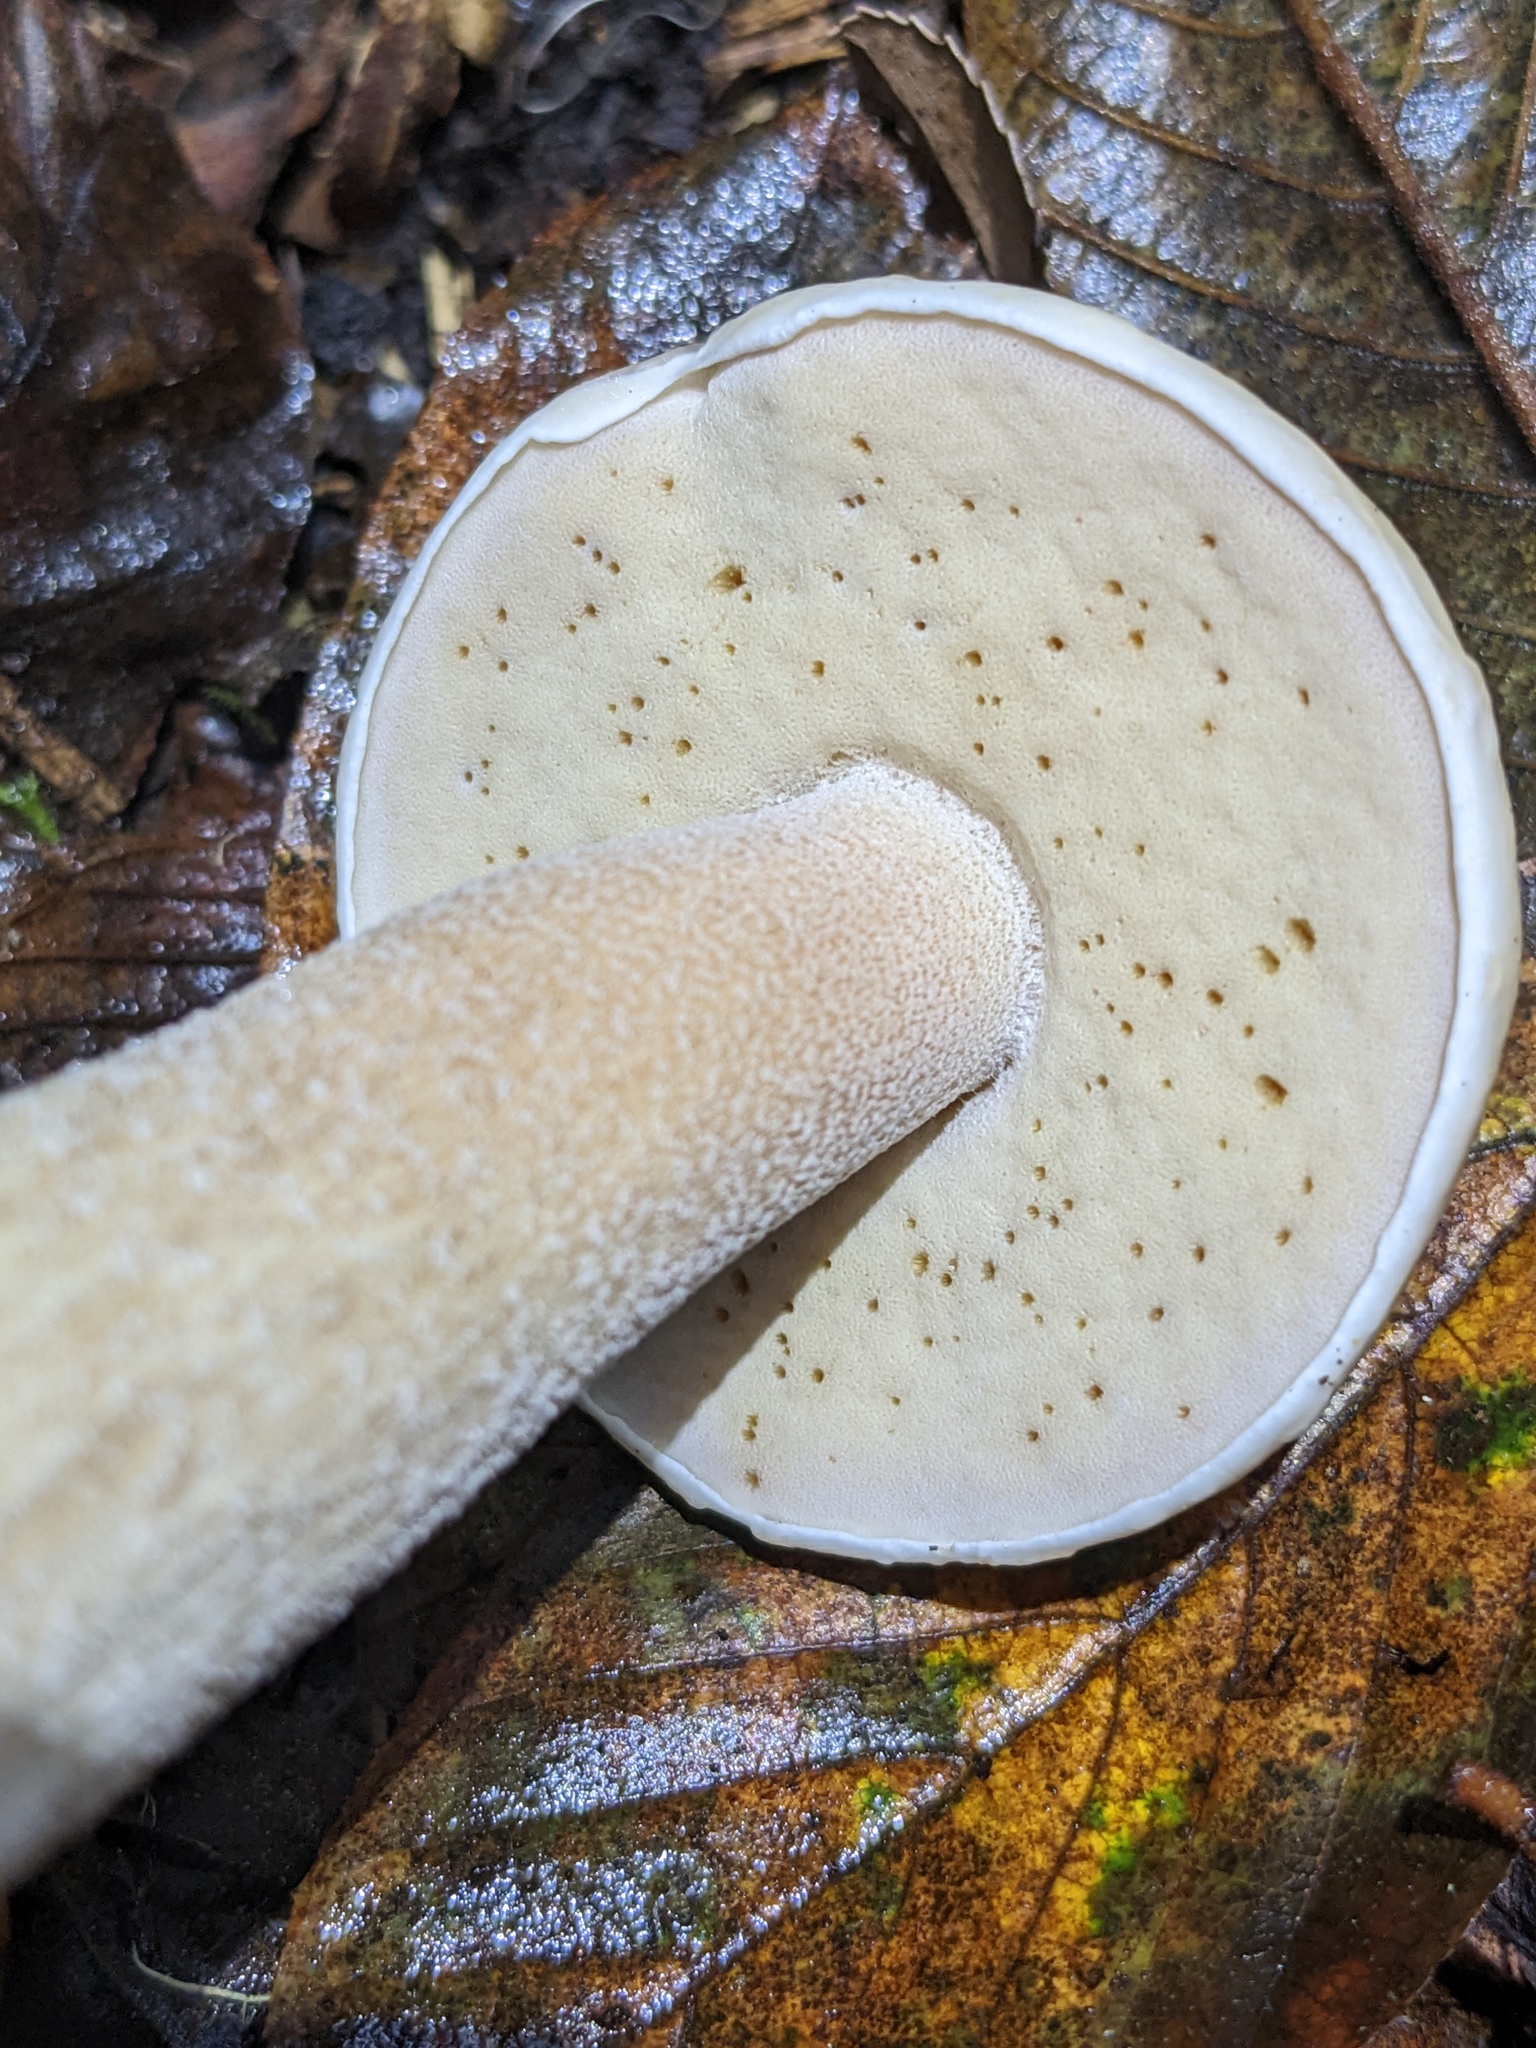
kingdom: Fungi
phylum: Basidiomycota
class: Agaricomycetes
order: Boletales
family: Boletaceae
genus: Boletus
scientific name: Boletus edulis
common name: Cep
